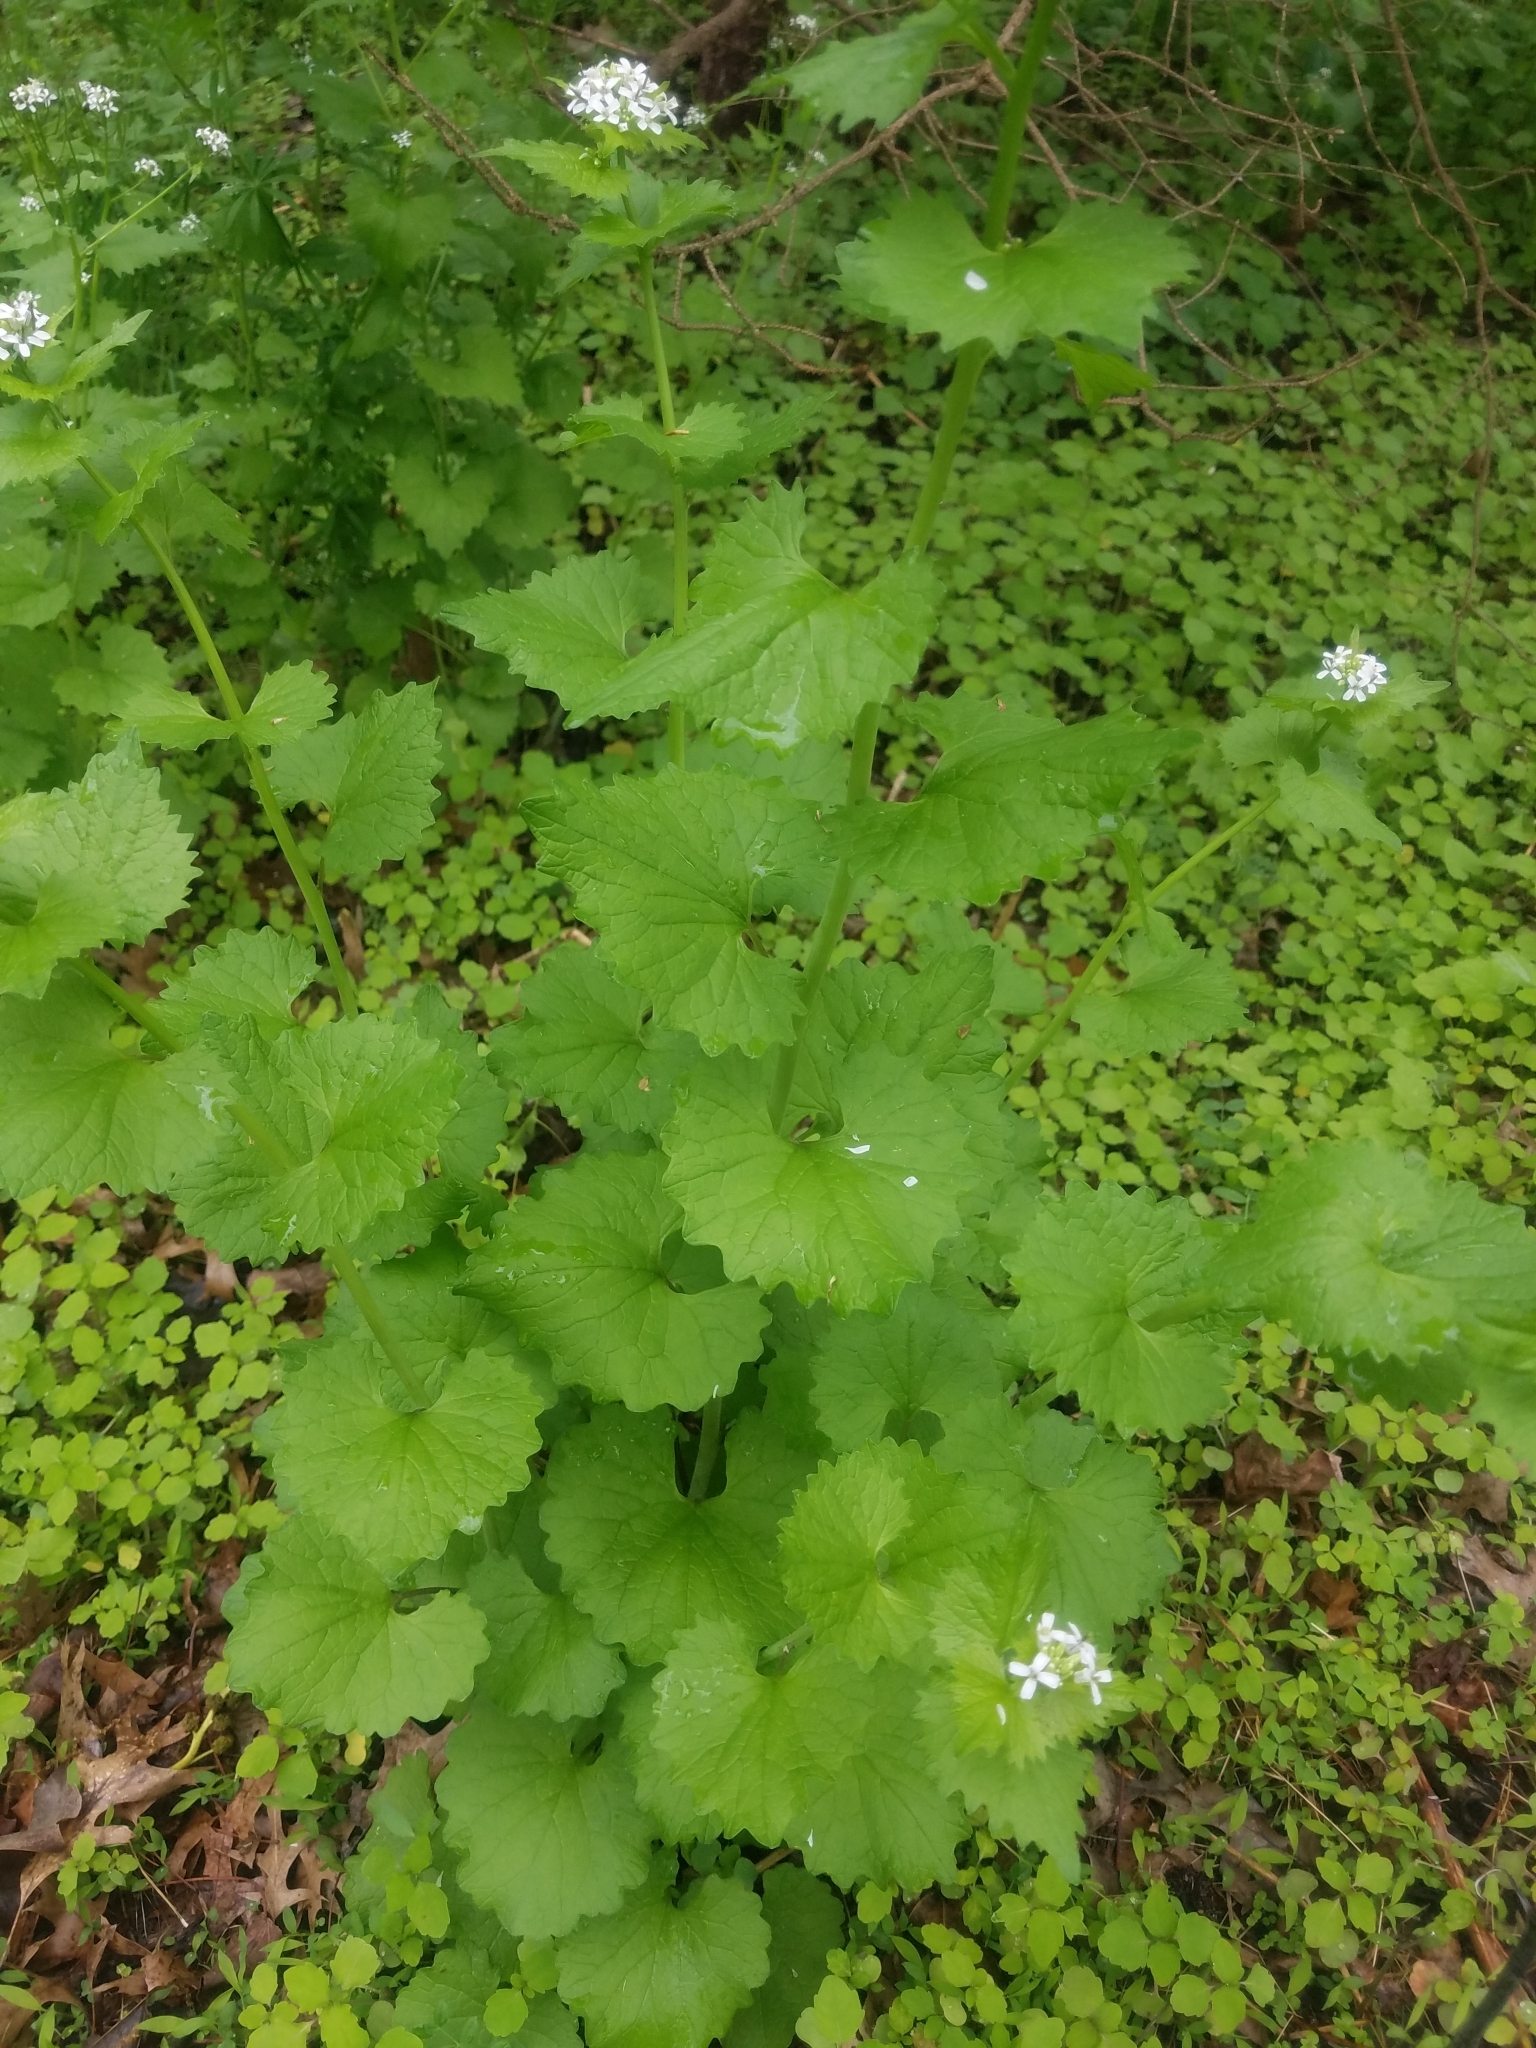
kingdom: Plantae
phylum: Tracheophyta
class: Magnoliopsida
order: Brassicales
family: Brassicaceae
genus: Alliaria
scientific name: Alliaria petiolata
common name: Garlic mustard
